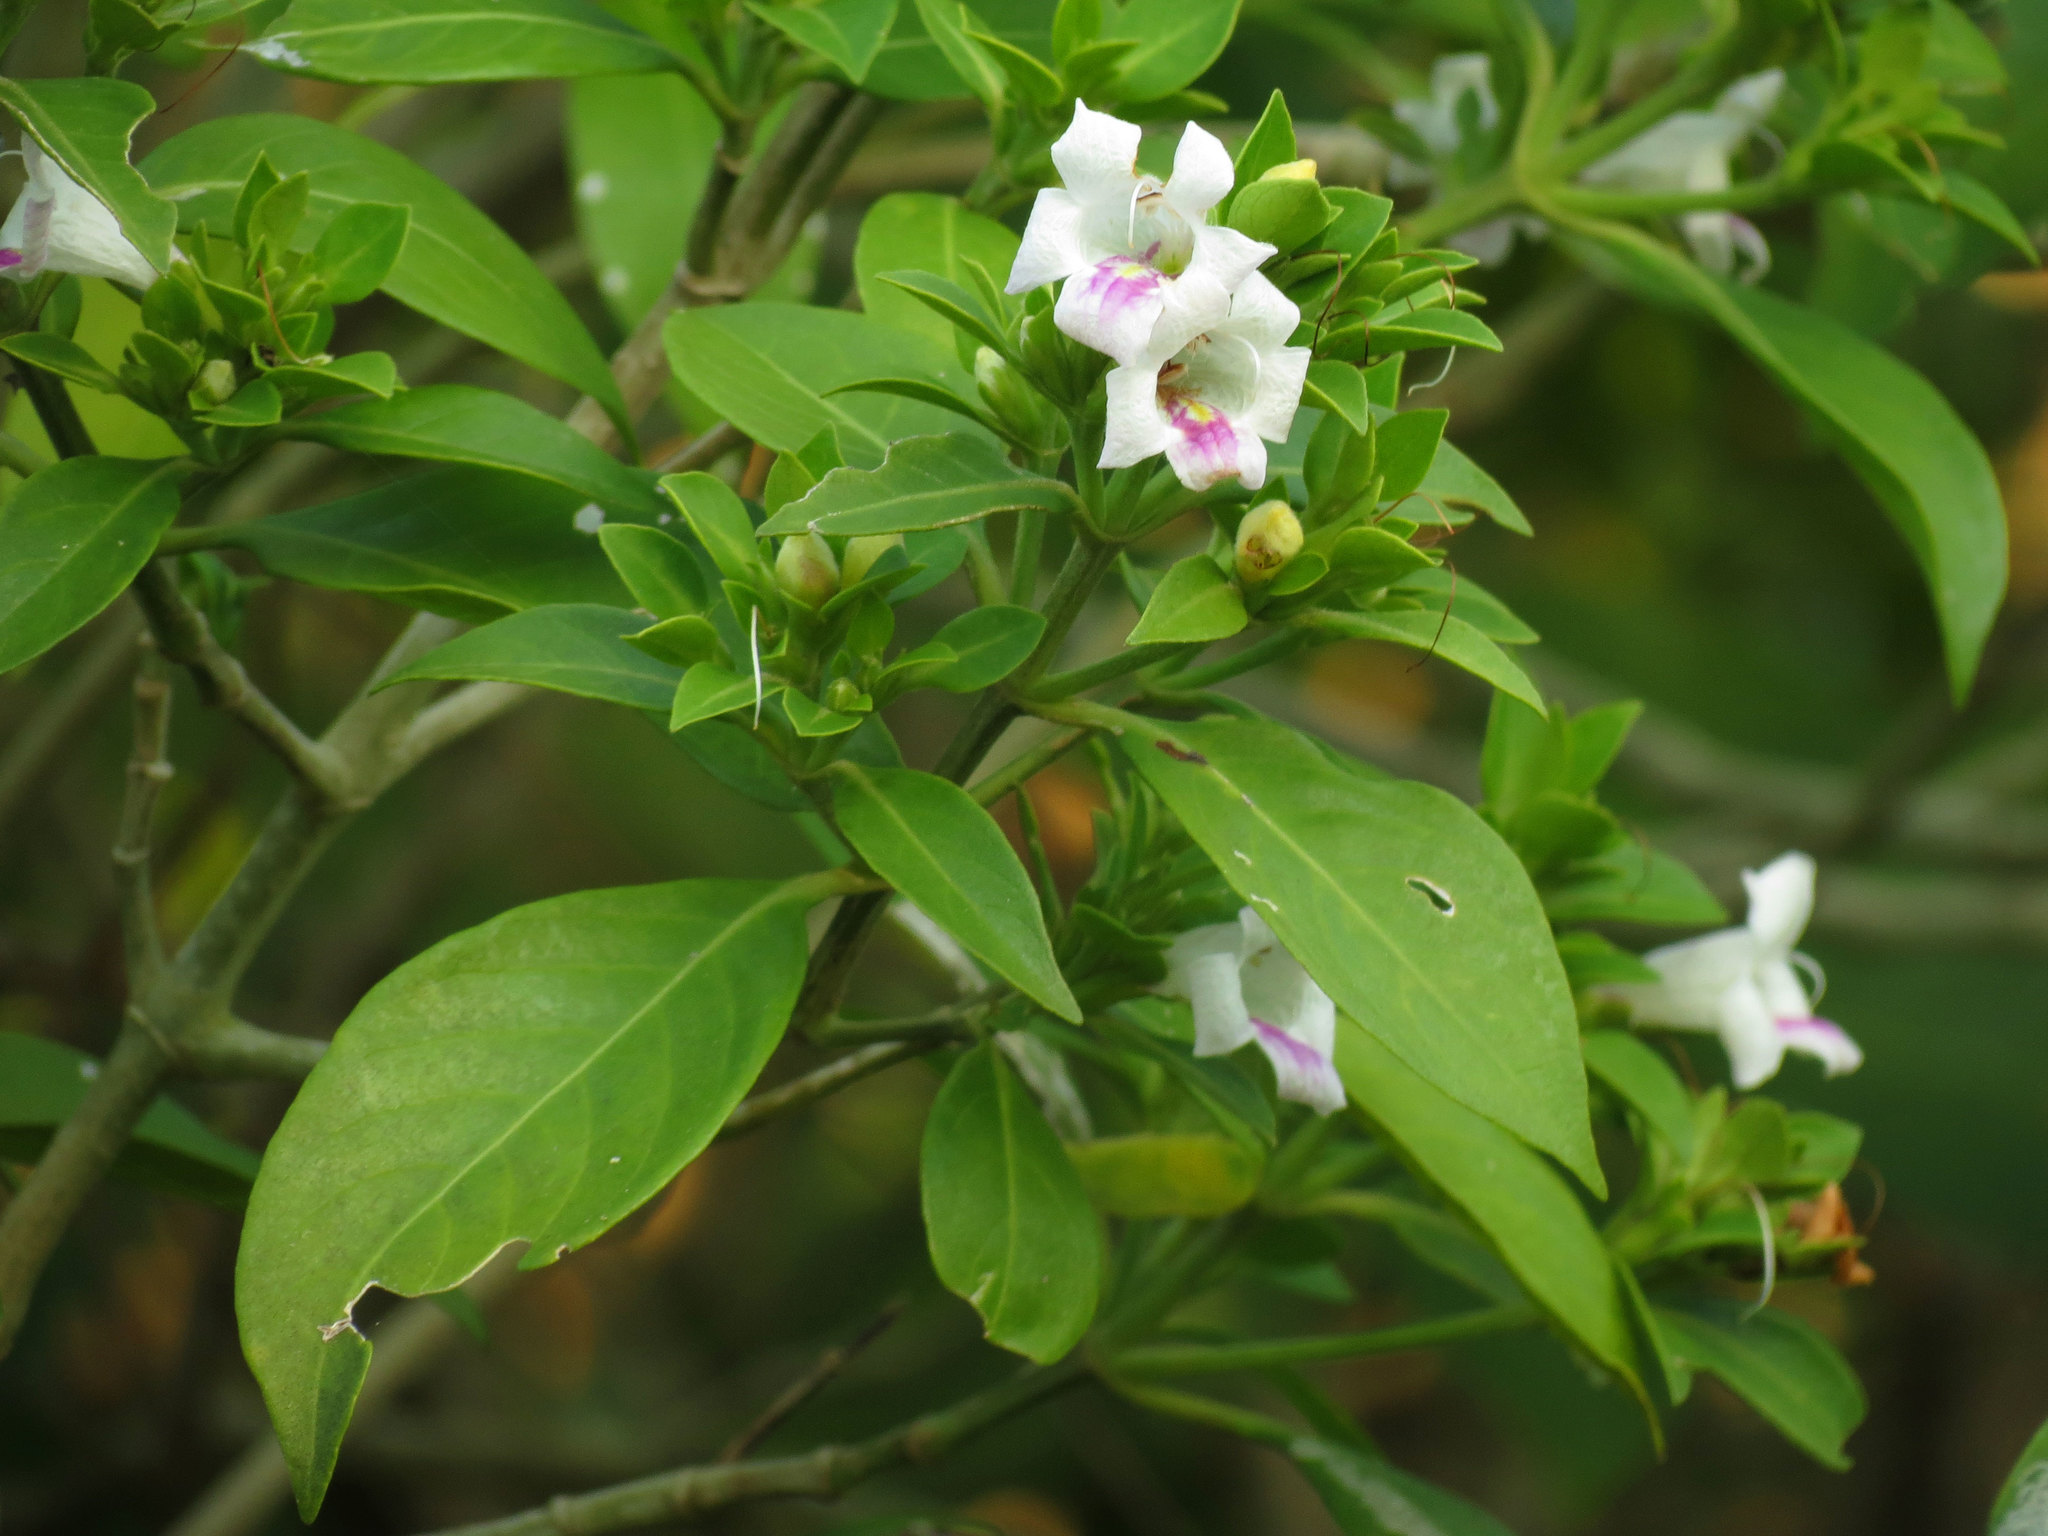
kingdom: Plantae
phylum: Tracheophyta
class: Magnoliopsida
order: Lamiales
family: Acanthaceae
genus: Bravaisia
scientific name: Bravaisia berlandieriana
